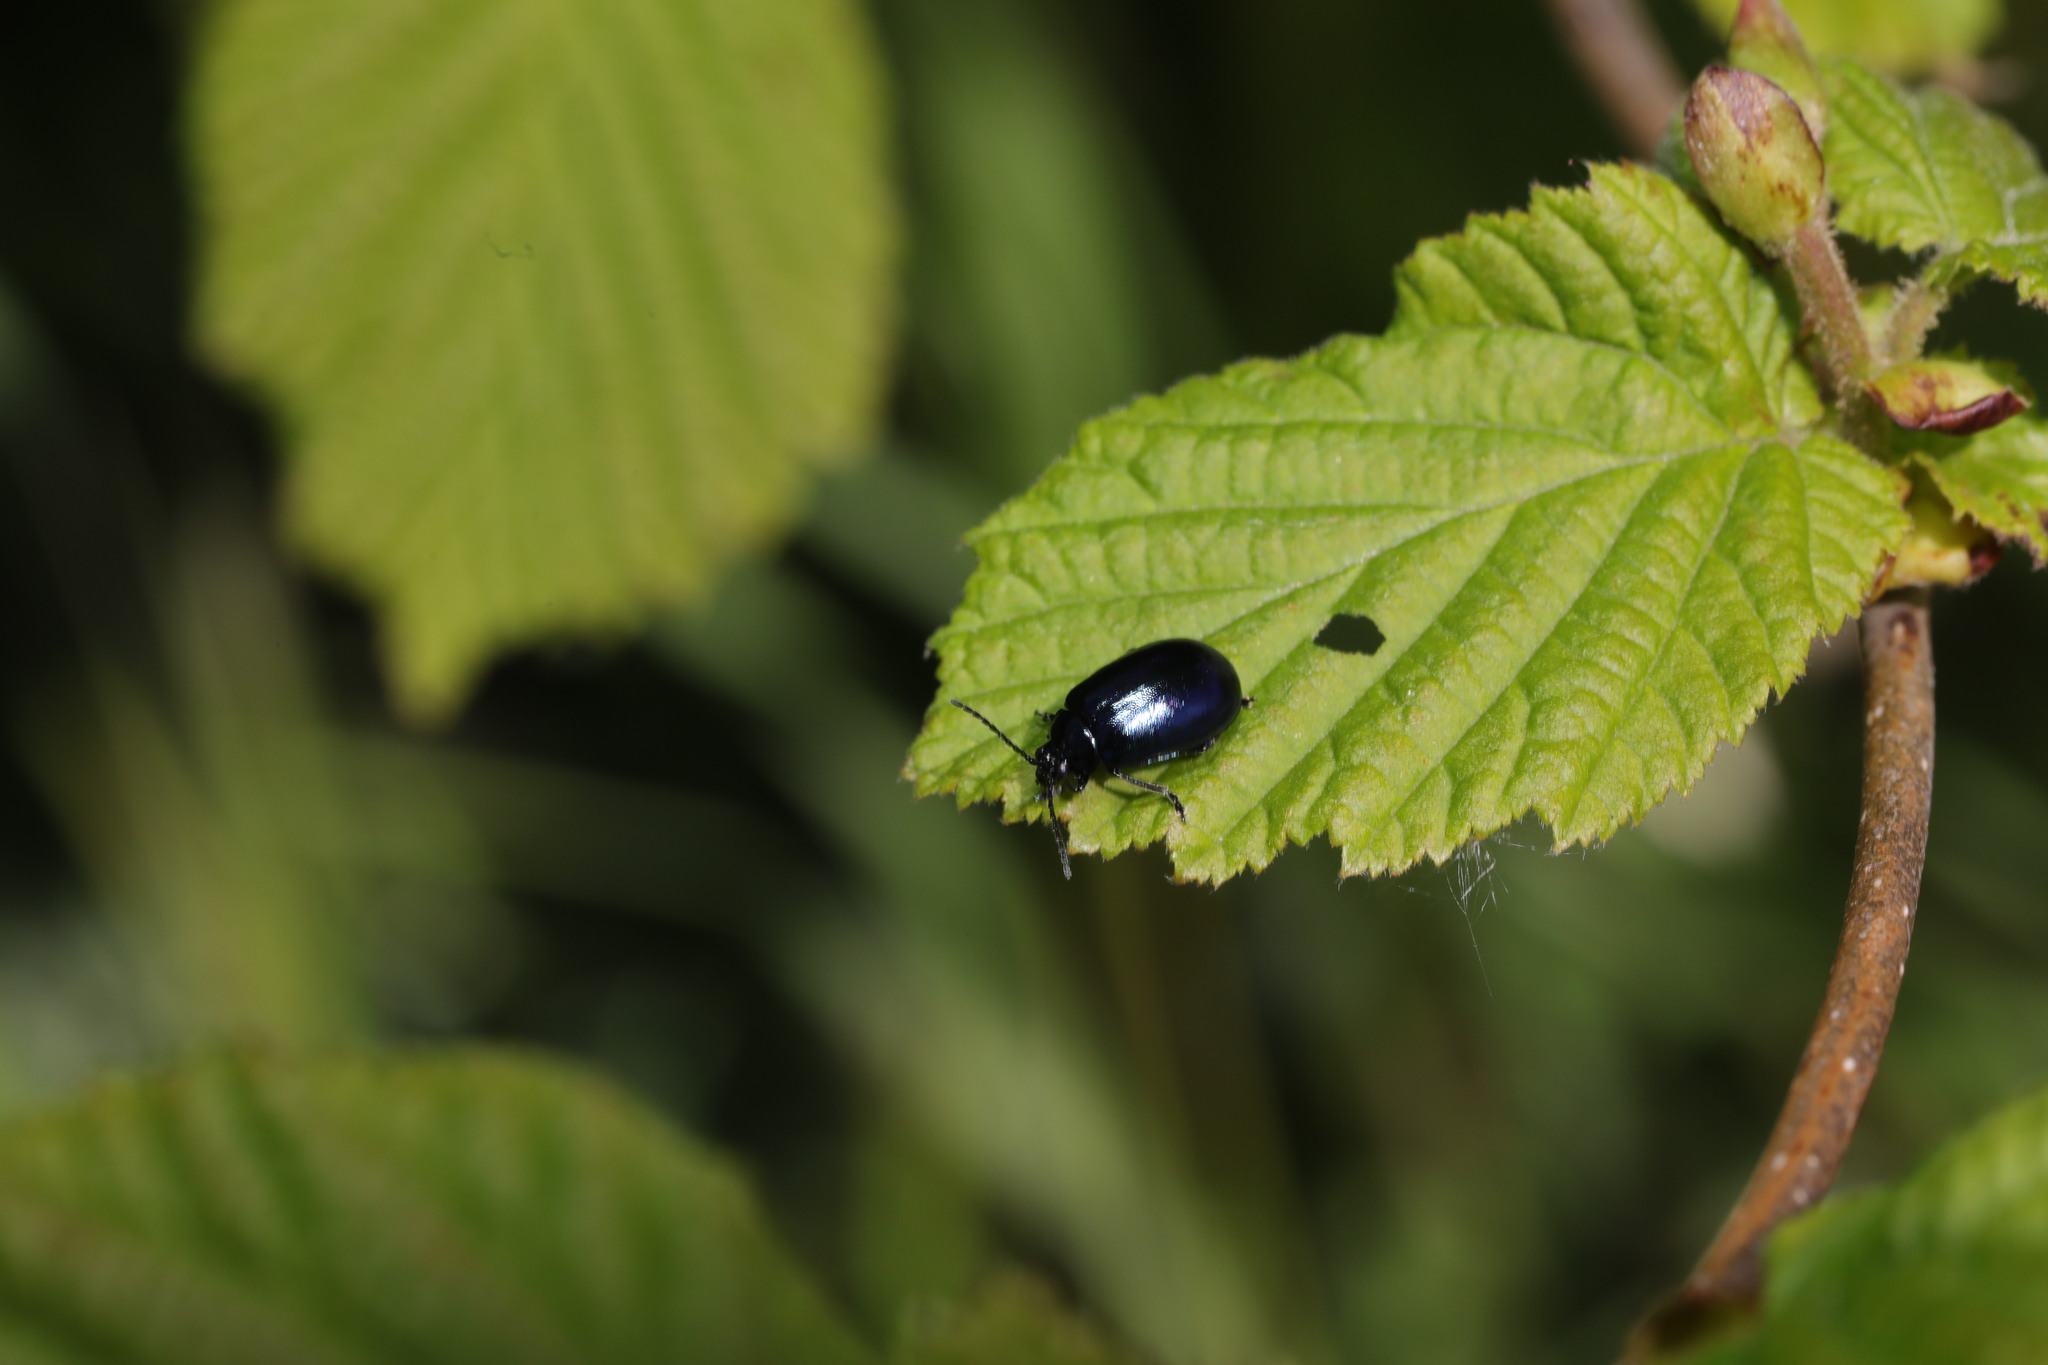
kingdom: Animalia
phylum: Arthropoda
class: Insecta
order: Coleoptera
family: Chrysomelidae
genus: Agelastica
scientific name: Agelastica alni
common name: Alder leaf beetle
